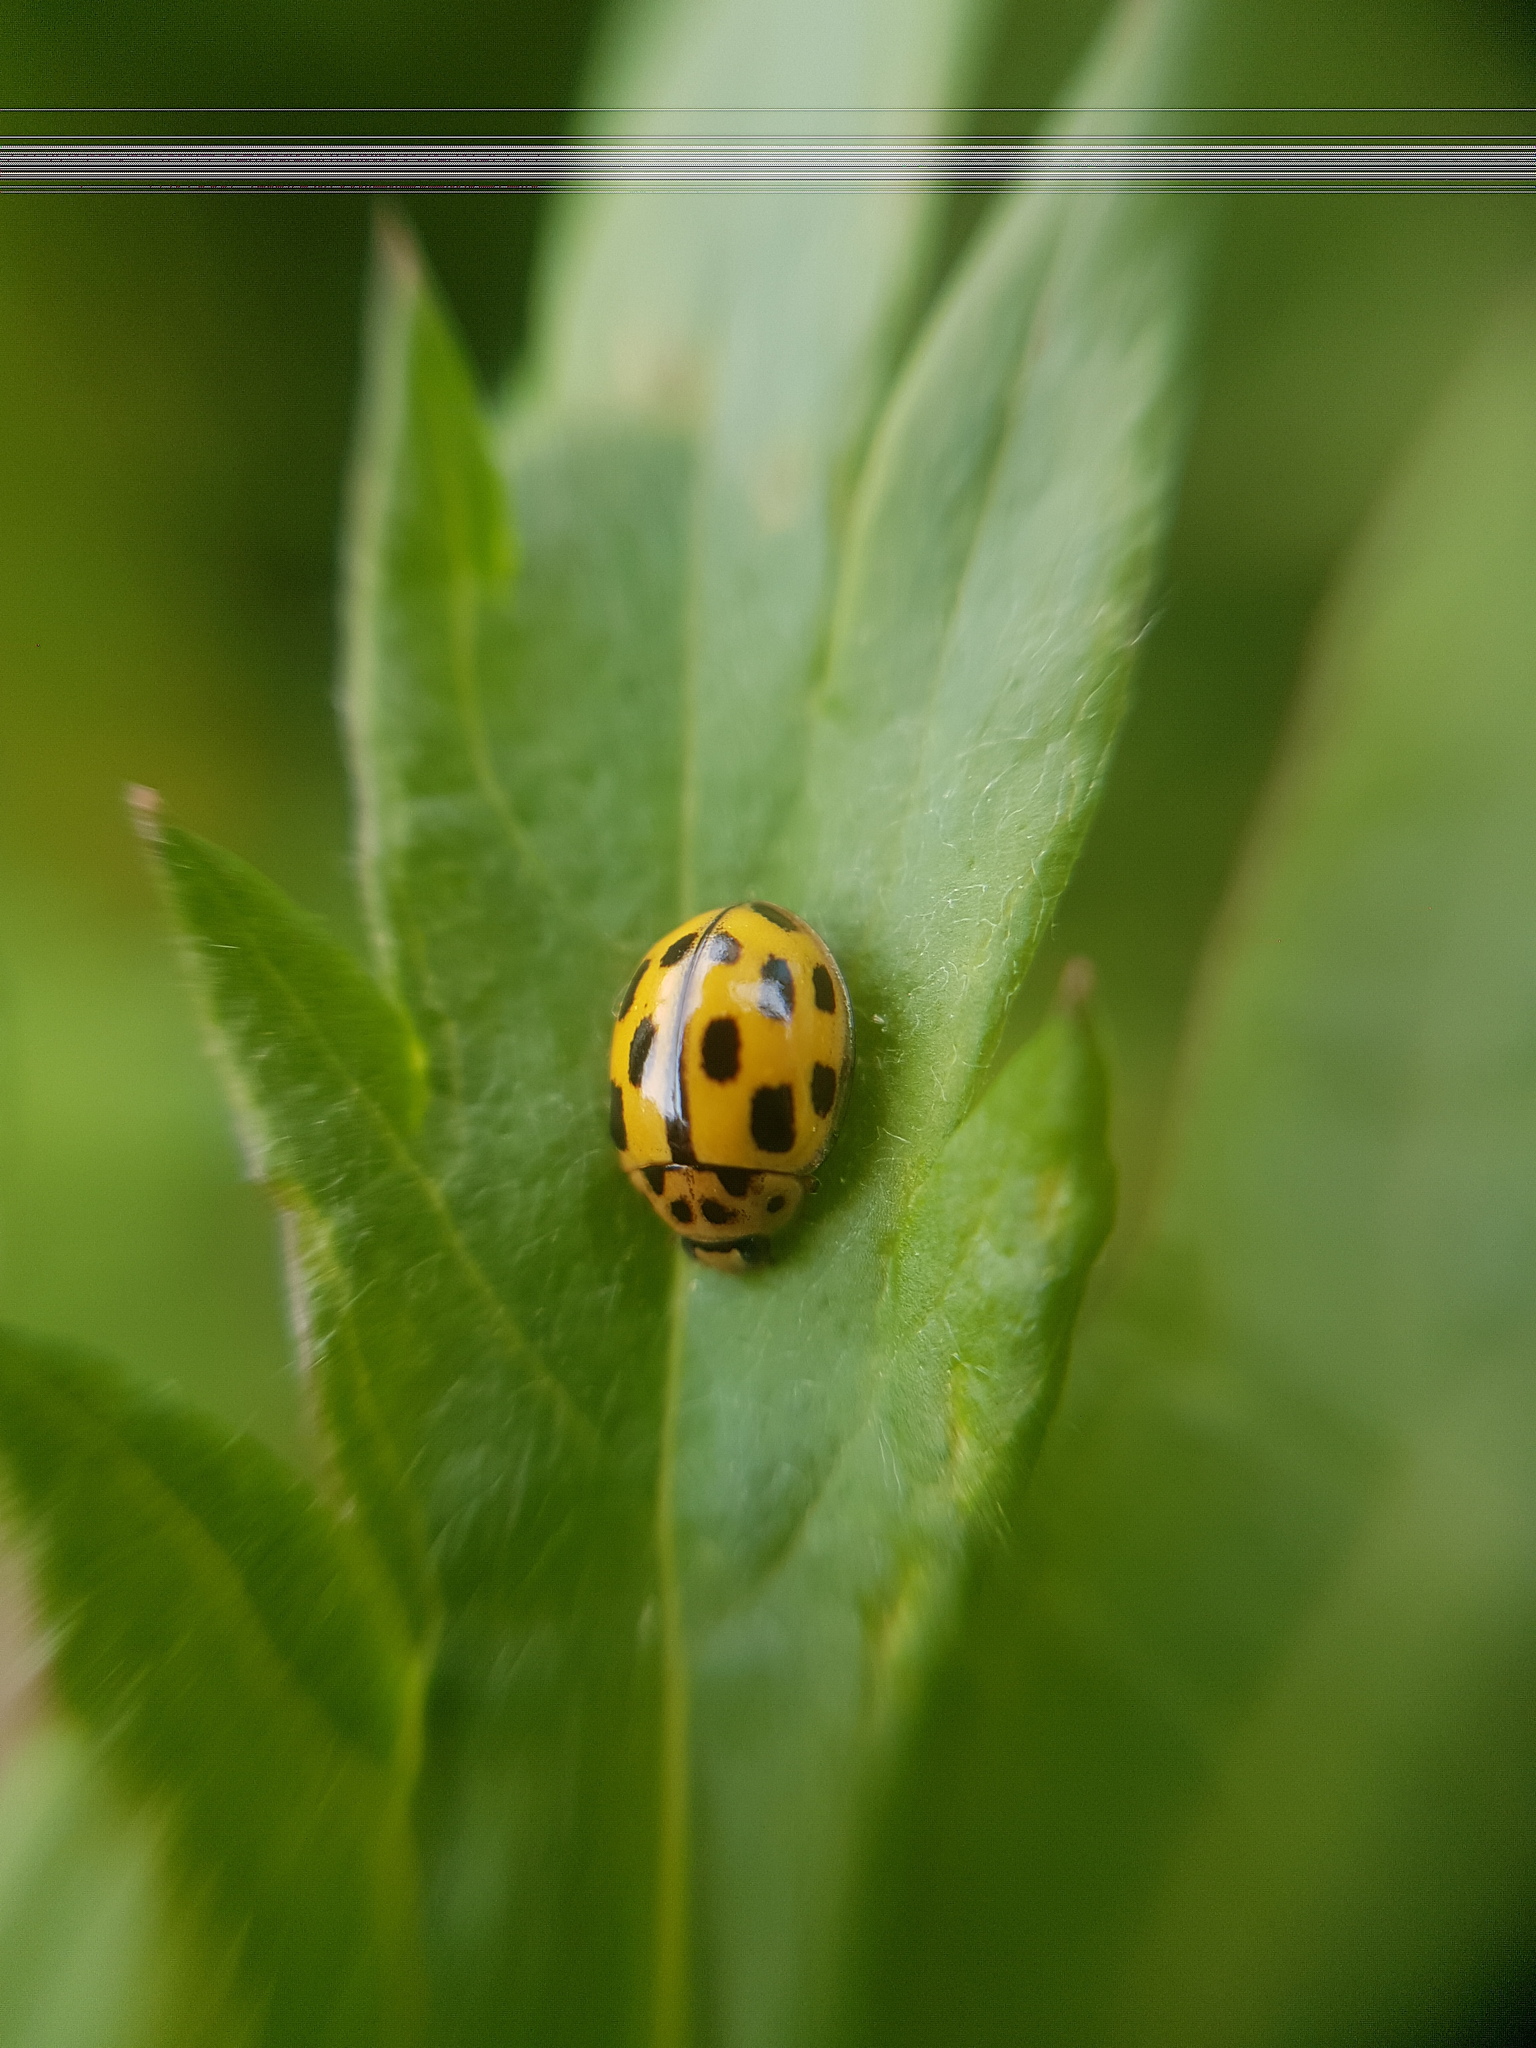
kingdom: Animalia
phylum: Arthropoda
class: Insecta
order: Coleoptera
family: Coccinellidae
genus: Propylaea
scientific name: Propylaea quatuordecimpunctata
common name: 14-spotted ladybird beetle
